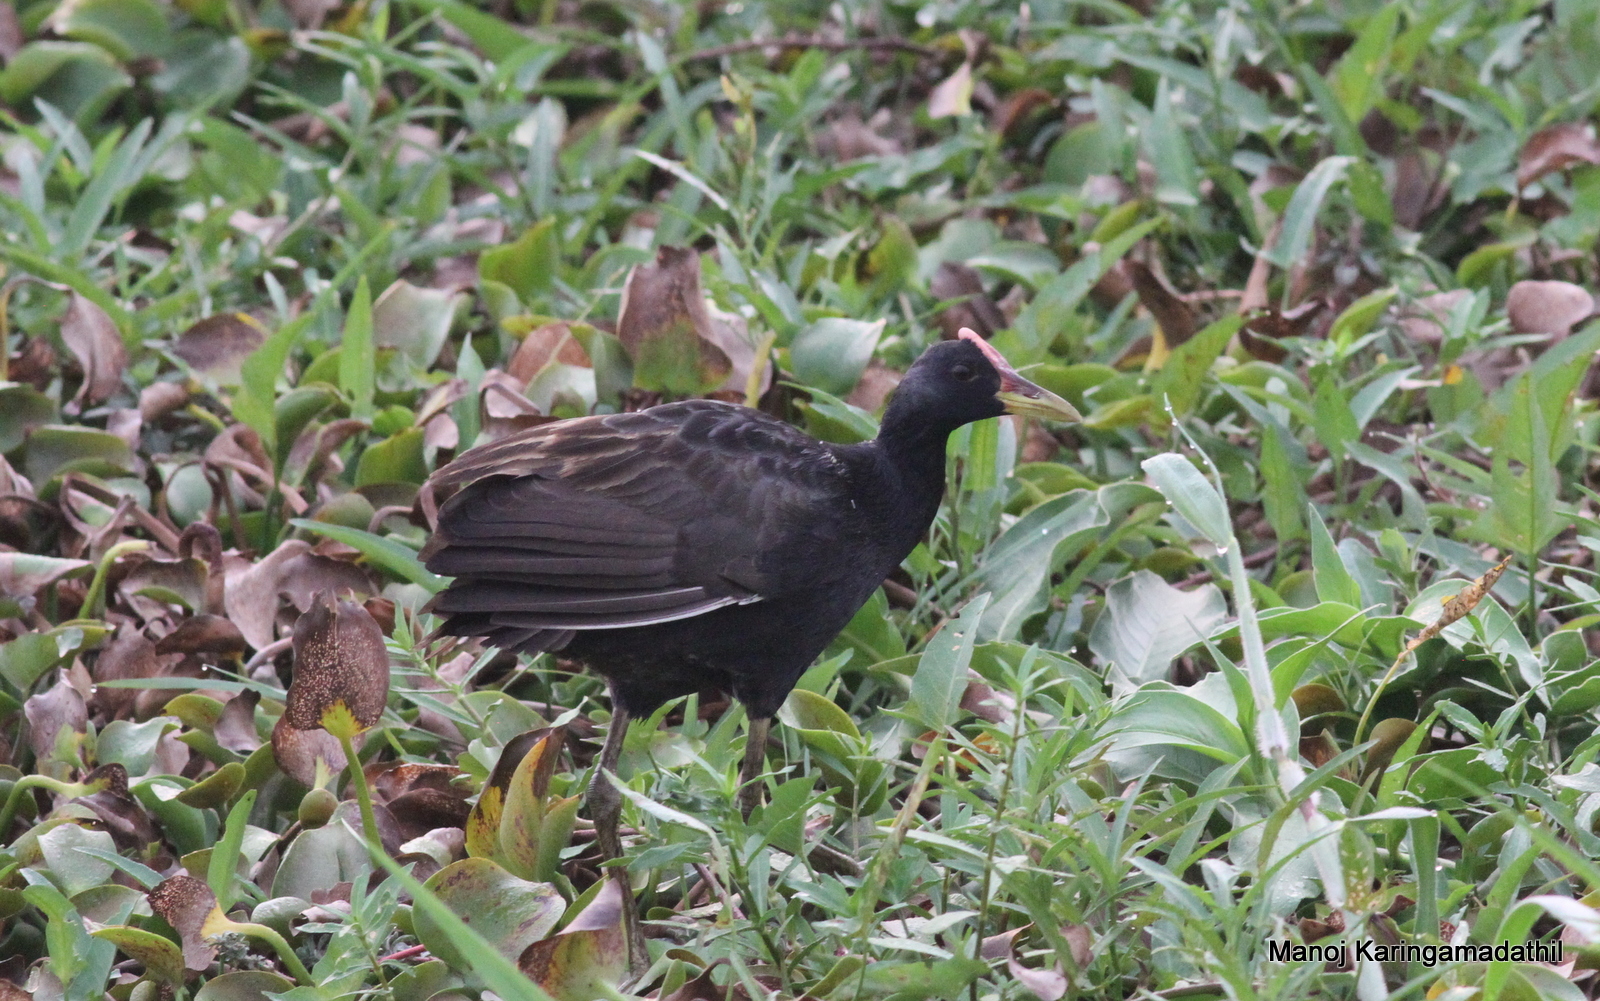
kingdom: Animalia
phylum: Chordata
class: Aves
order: Gruiformes
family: Rallidae
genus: Gallicrex
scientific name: Gallicrex cinerea
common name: Watercock
